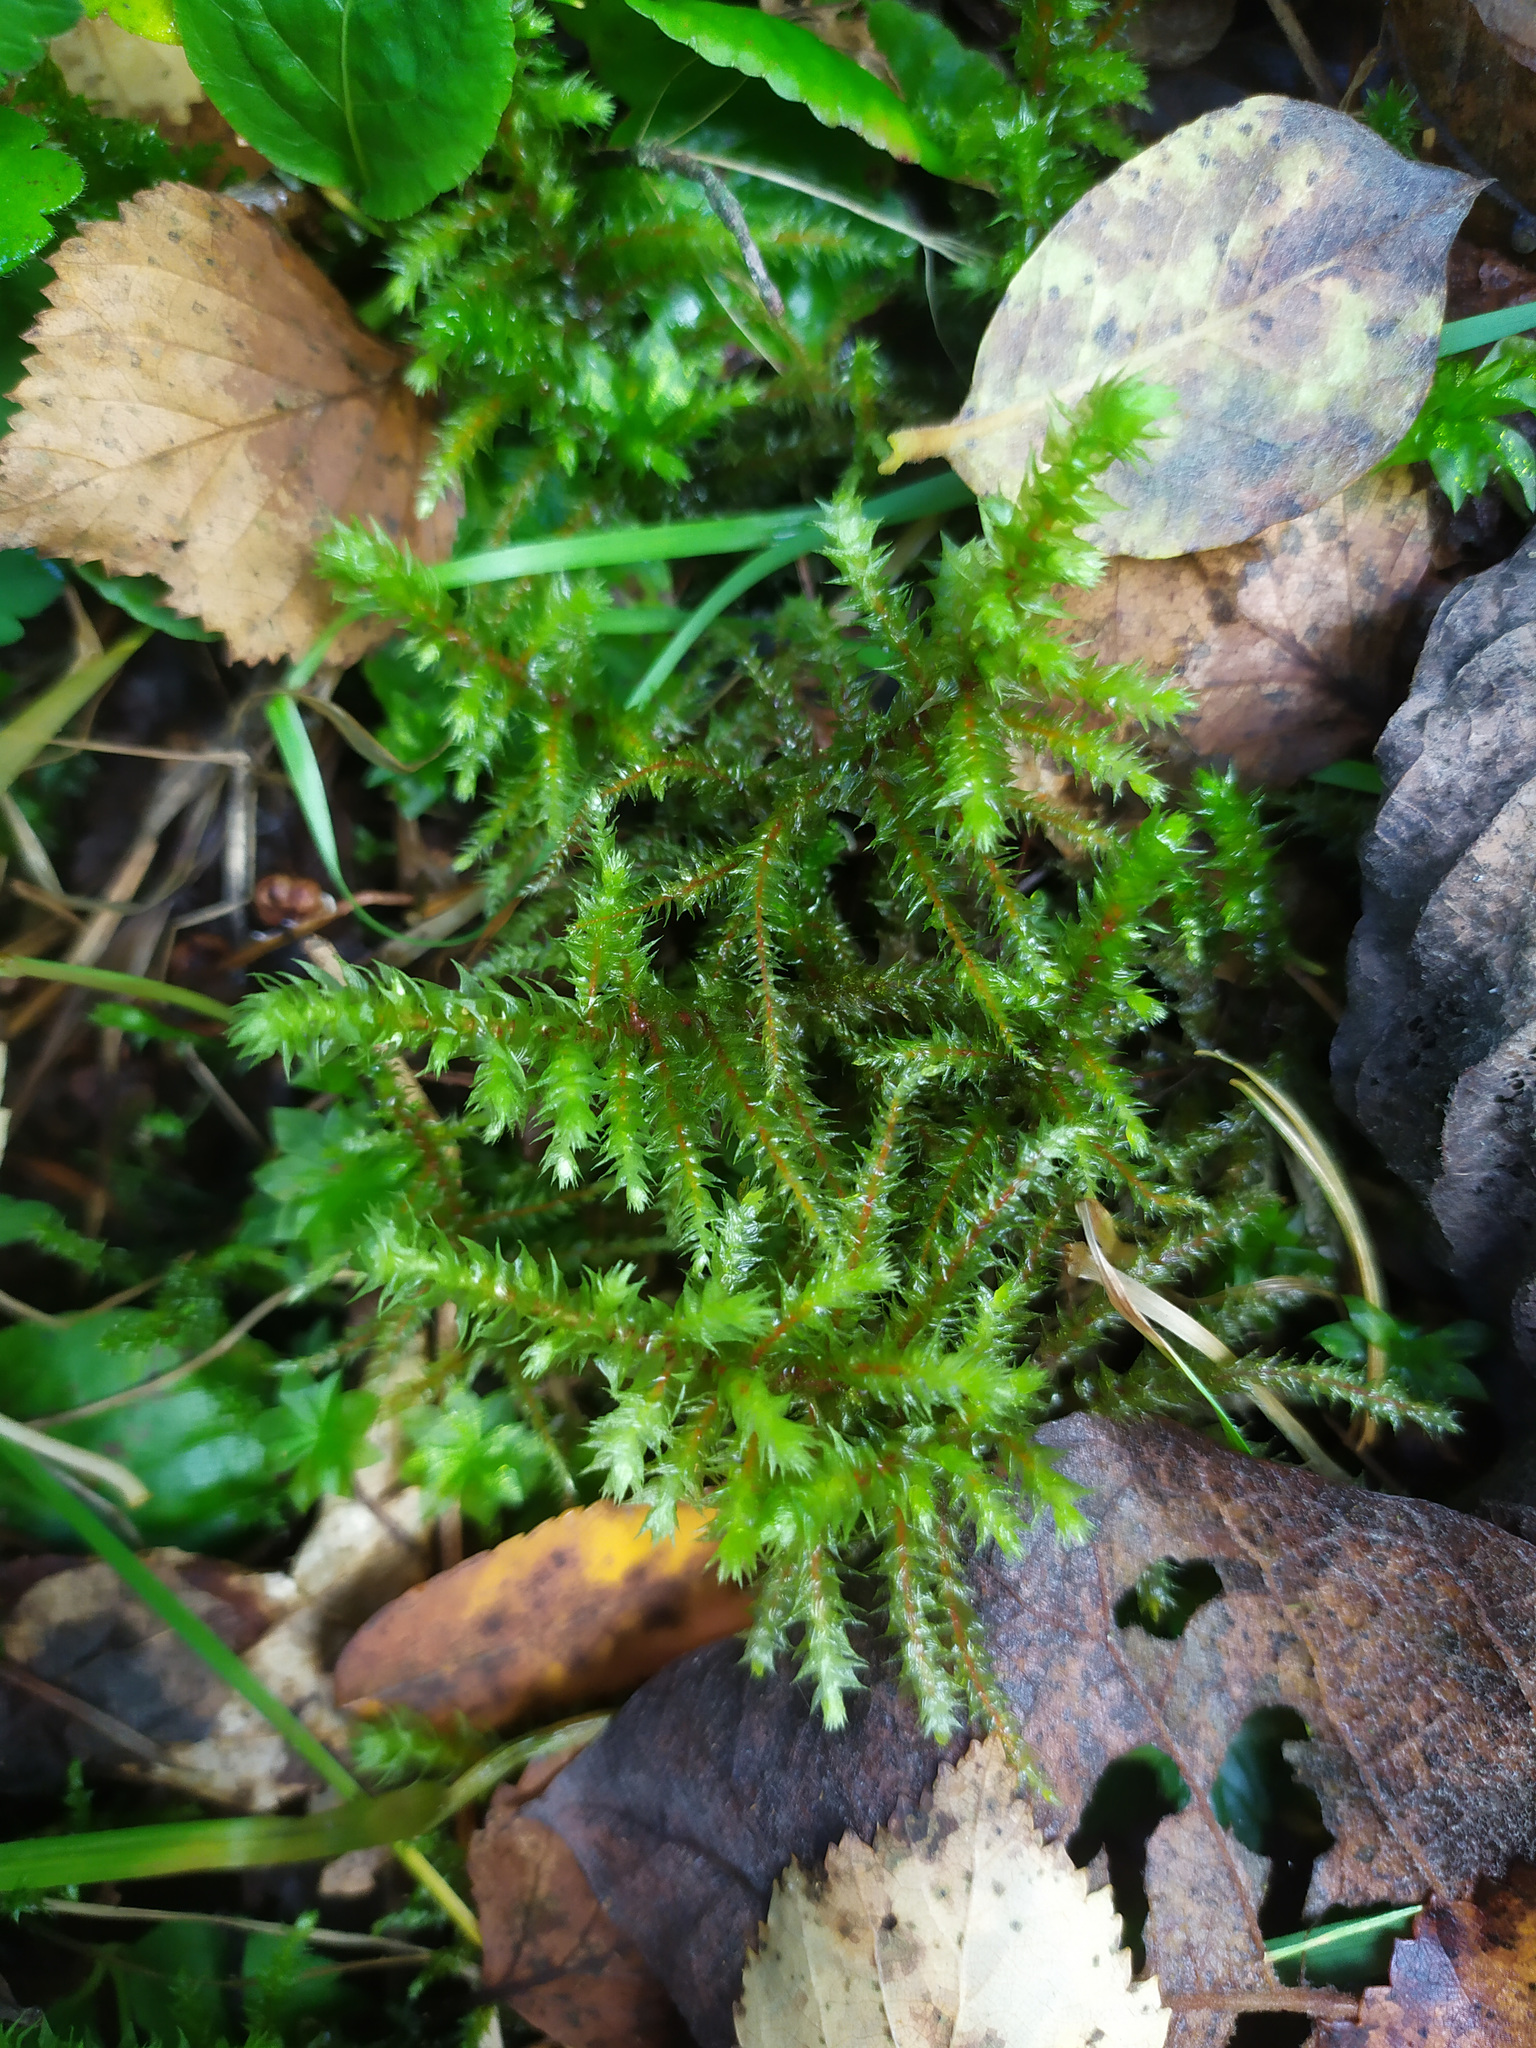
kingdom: Plantae
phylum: Bryophyta
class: Bryopsida
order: Hypnales
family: Hylocomiaceae
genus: Hylocomiadelphus
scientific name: Hylocomiadelphus triquetrus
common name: Rough goose neck moss
